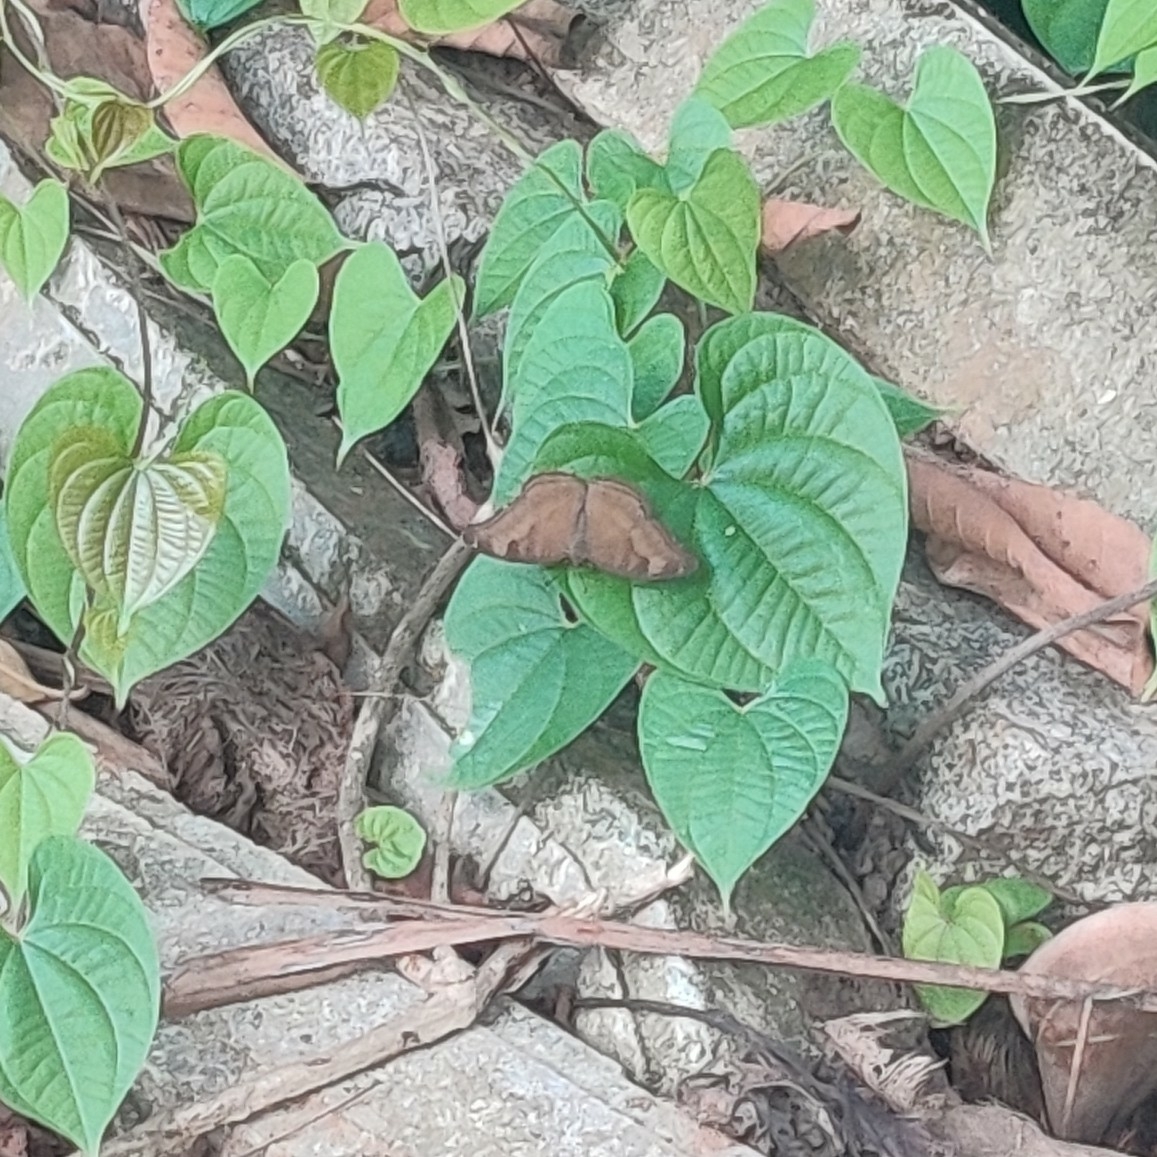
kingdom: Animalia
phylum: Arthropoda
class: Insecta
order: Lepidoptera
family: Nymphalidae
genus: Junonia
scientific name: Junonia iphita
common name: Chocolate pansy
